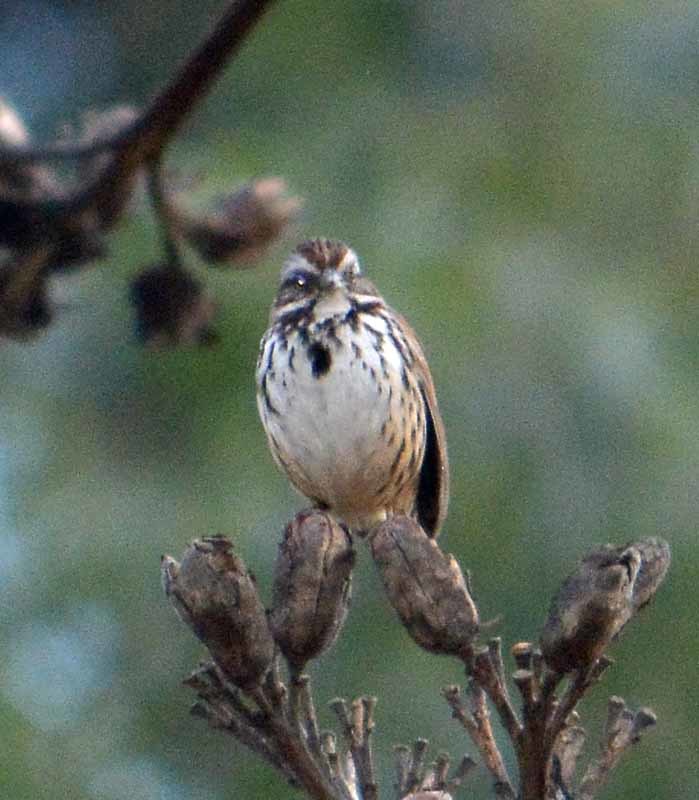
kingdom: Animalia
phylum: Chordata
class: Aves
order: Passeriformes
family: Passerellidae
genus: Melospiza
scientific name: Melospiza melodia
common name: Song sparrow
